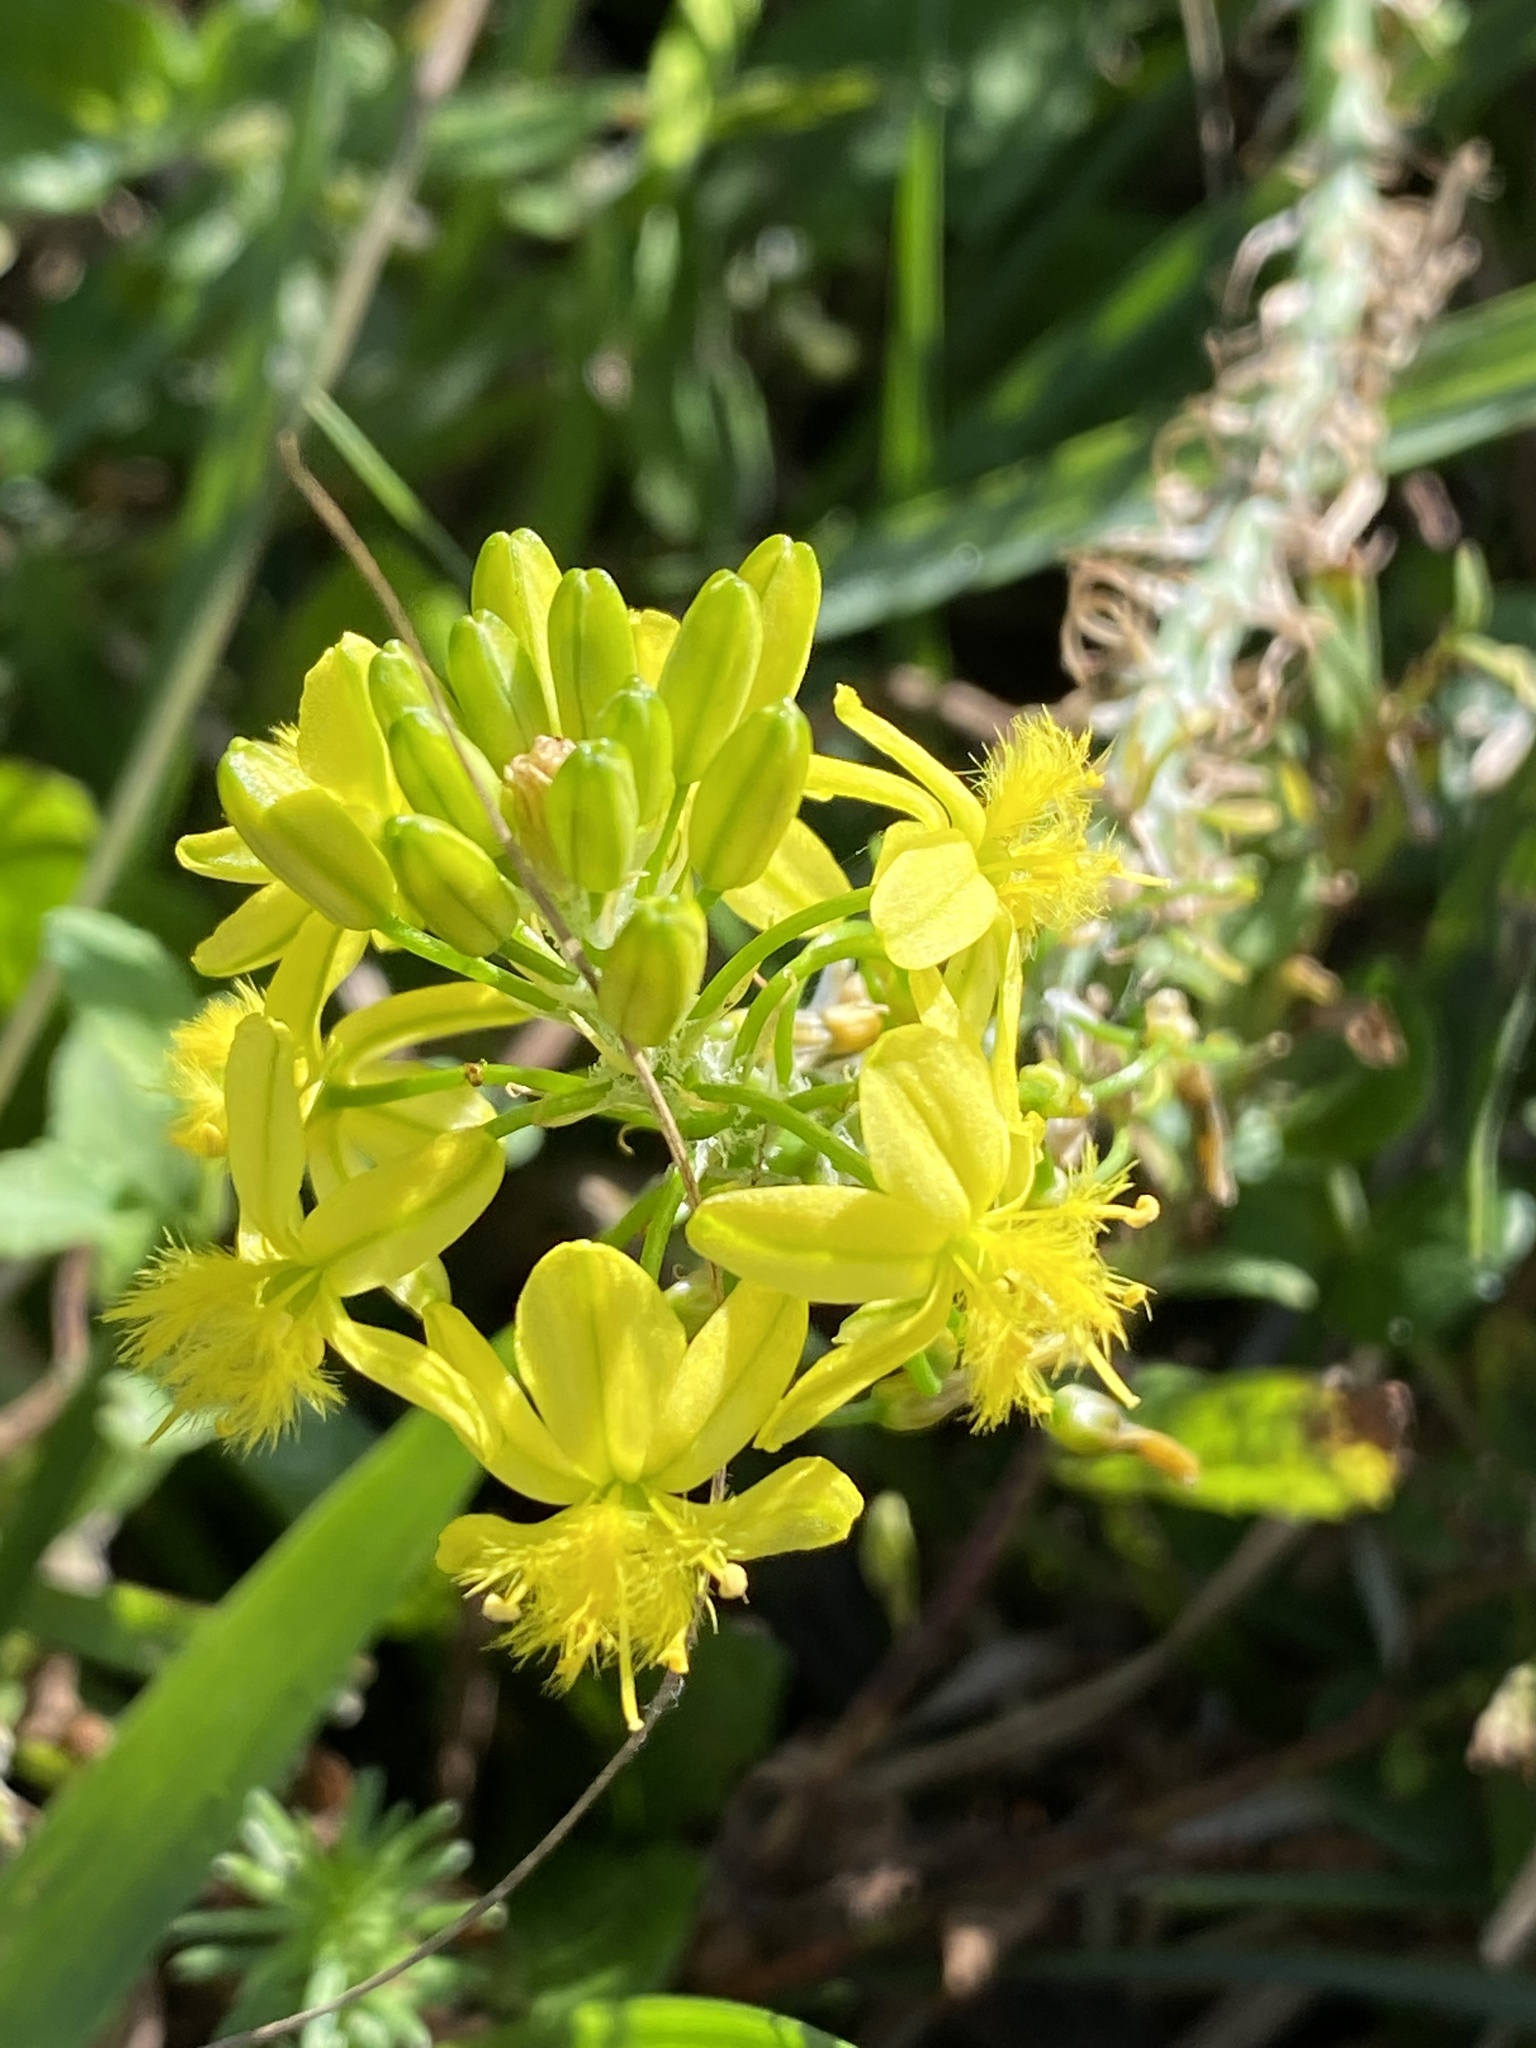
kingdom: Plantae
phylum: Tracheophyta
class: Liliopsida
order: Asparagales
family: Asphodelaceae
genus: Bulbine
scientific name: Bulbine narcissifolia
